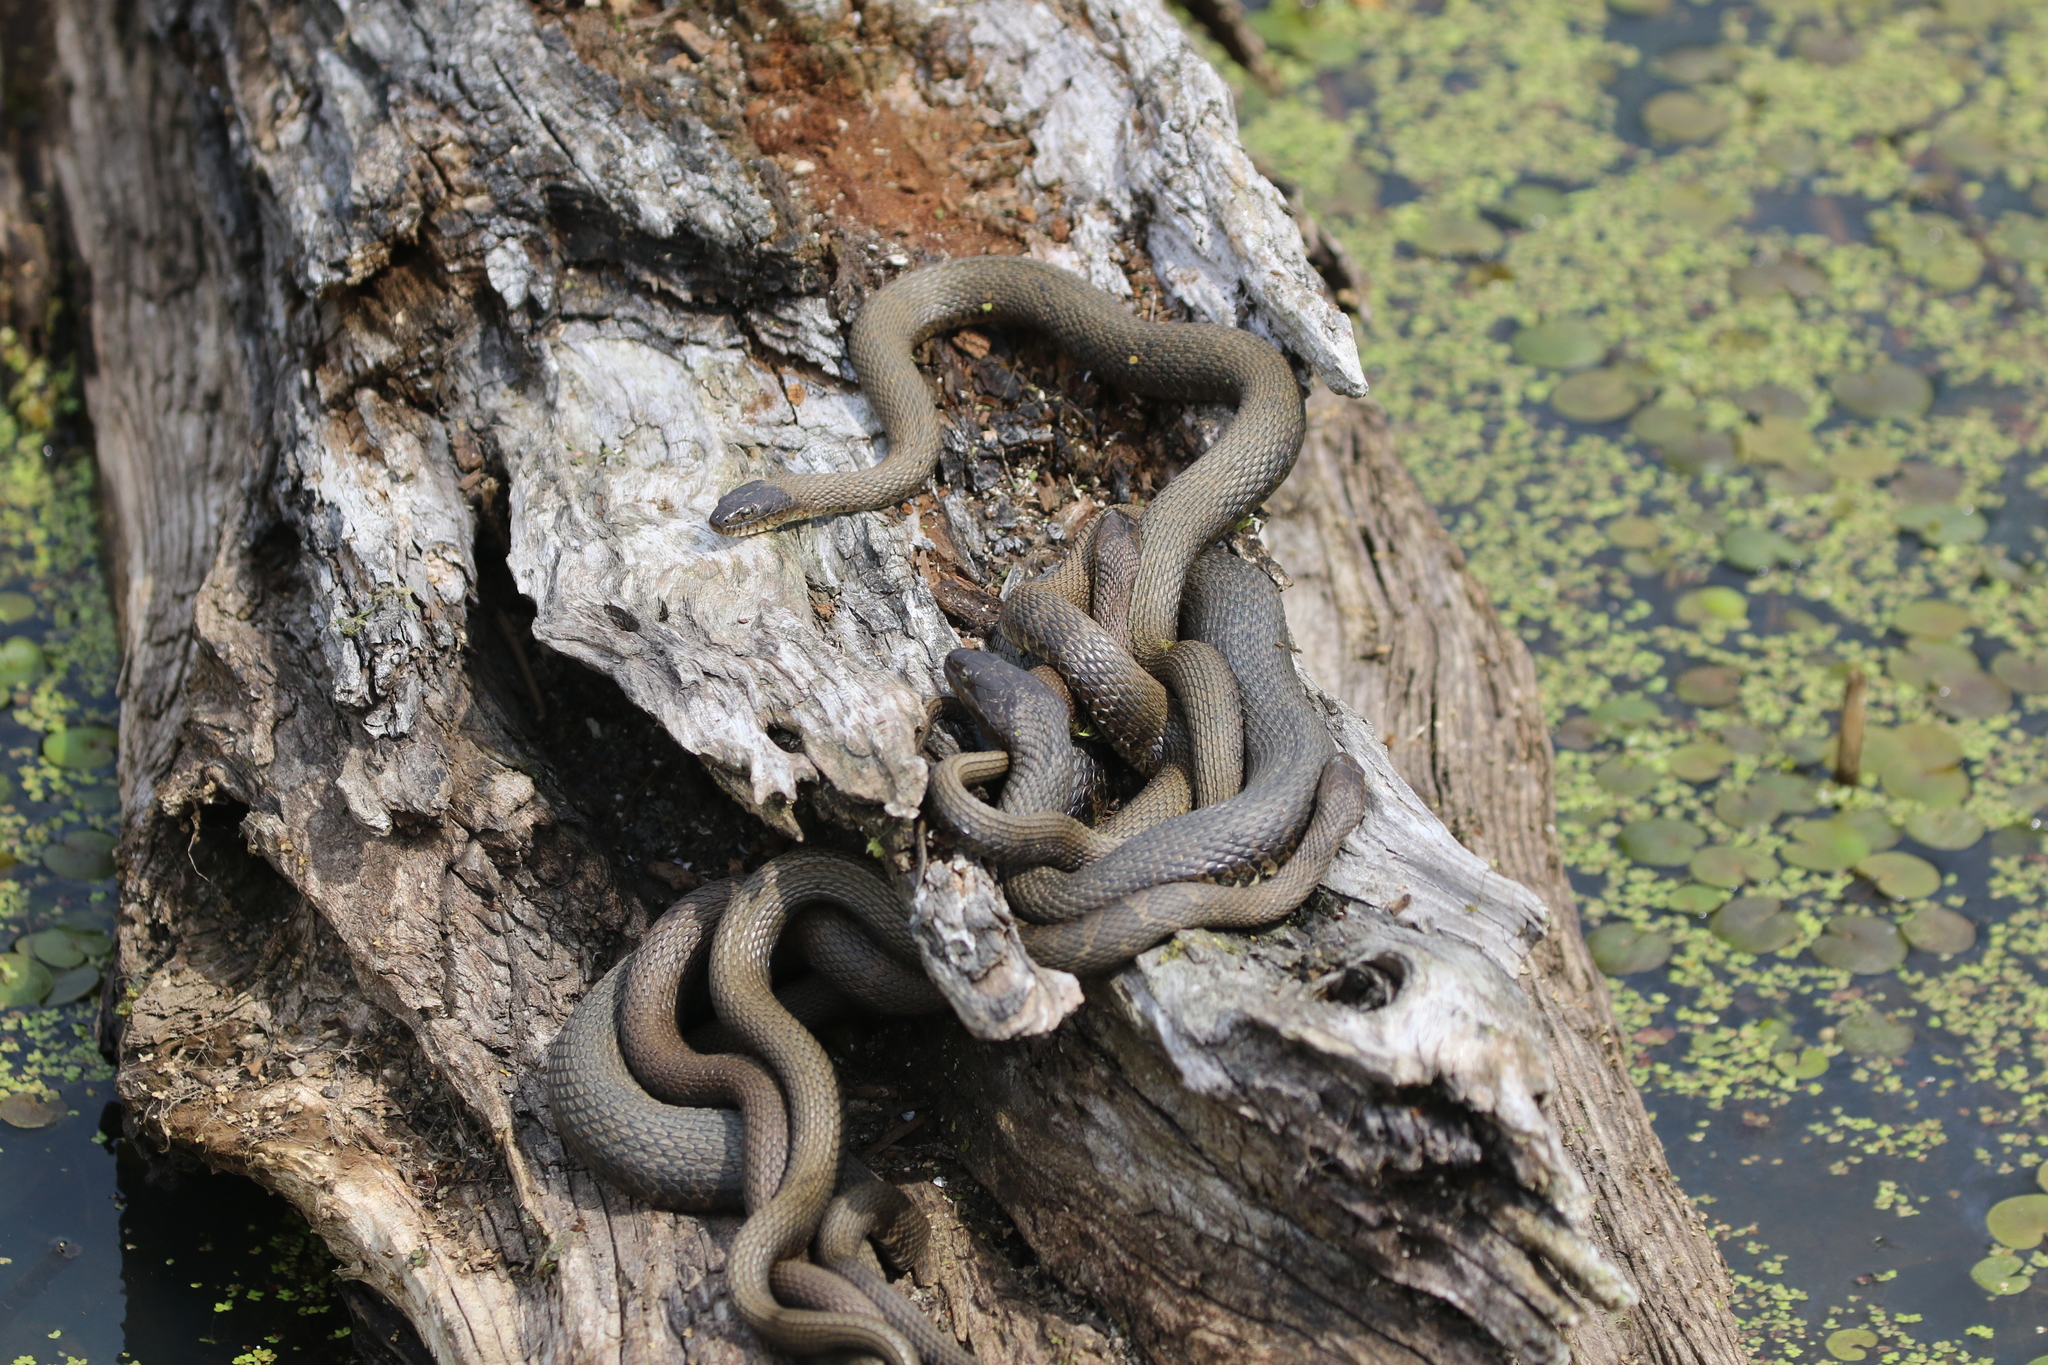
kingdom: Animalia
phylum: Chordata
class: Squamata
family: Colubridae
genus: Nerodia
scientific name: Nerodia sipedon
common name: Northern water snake
